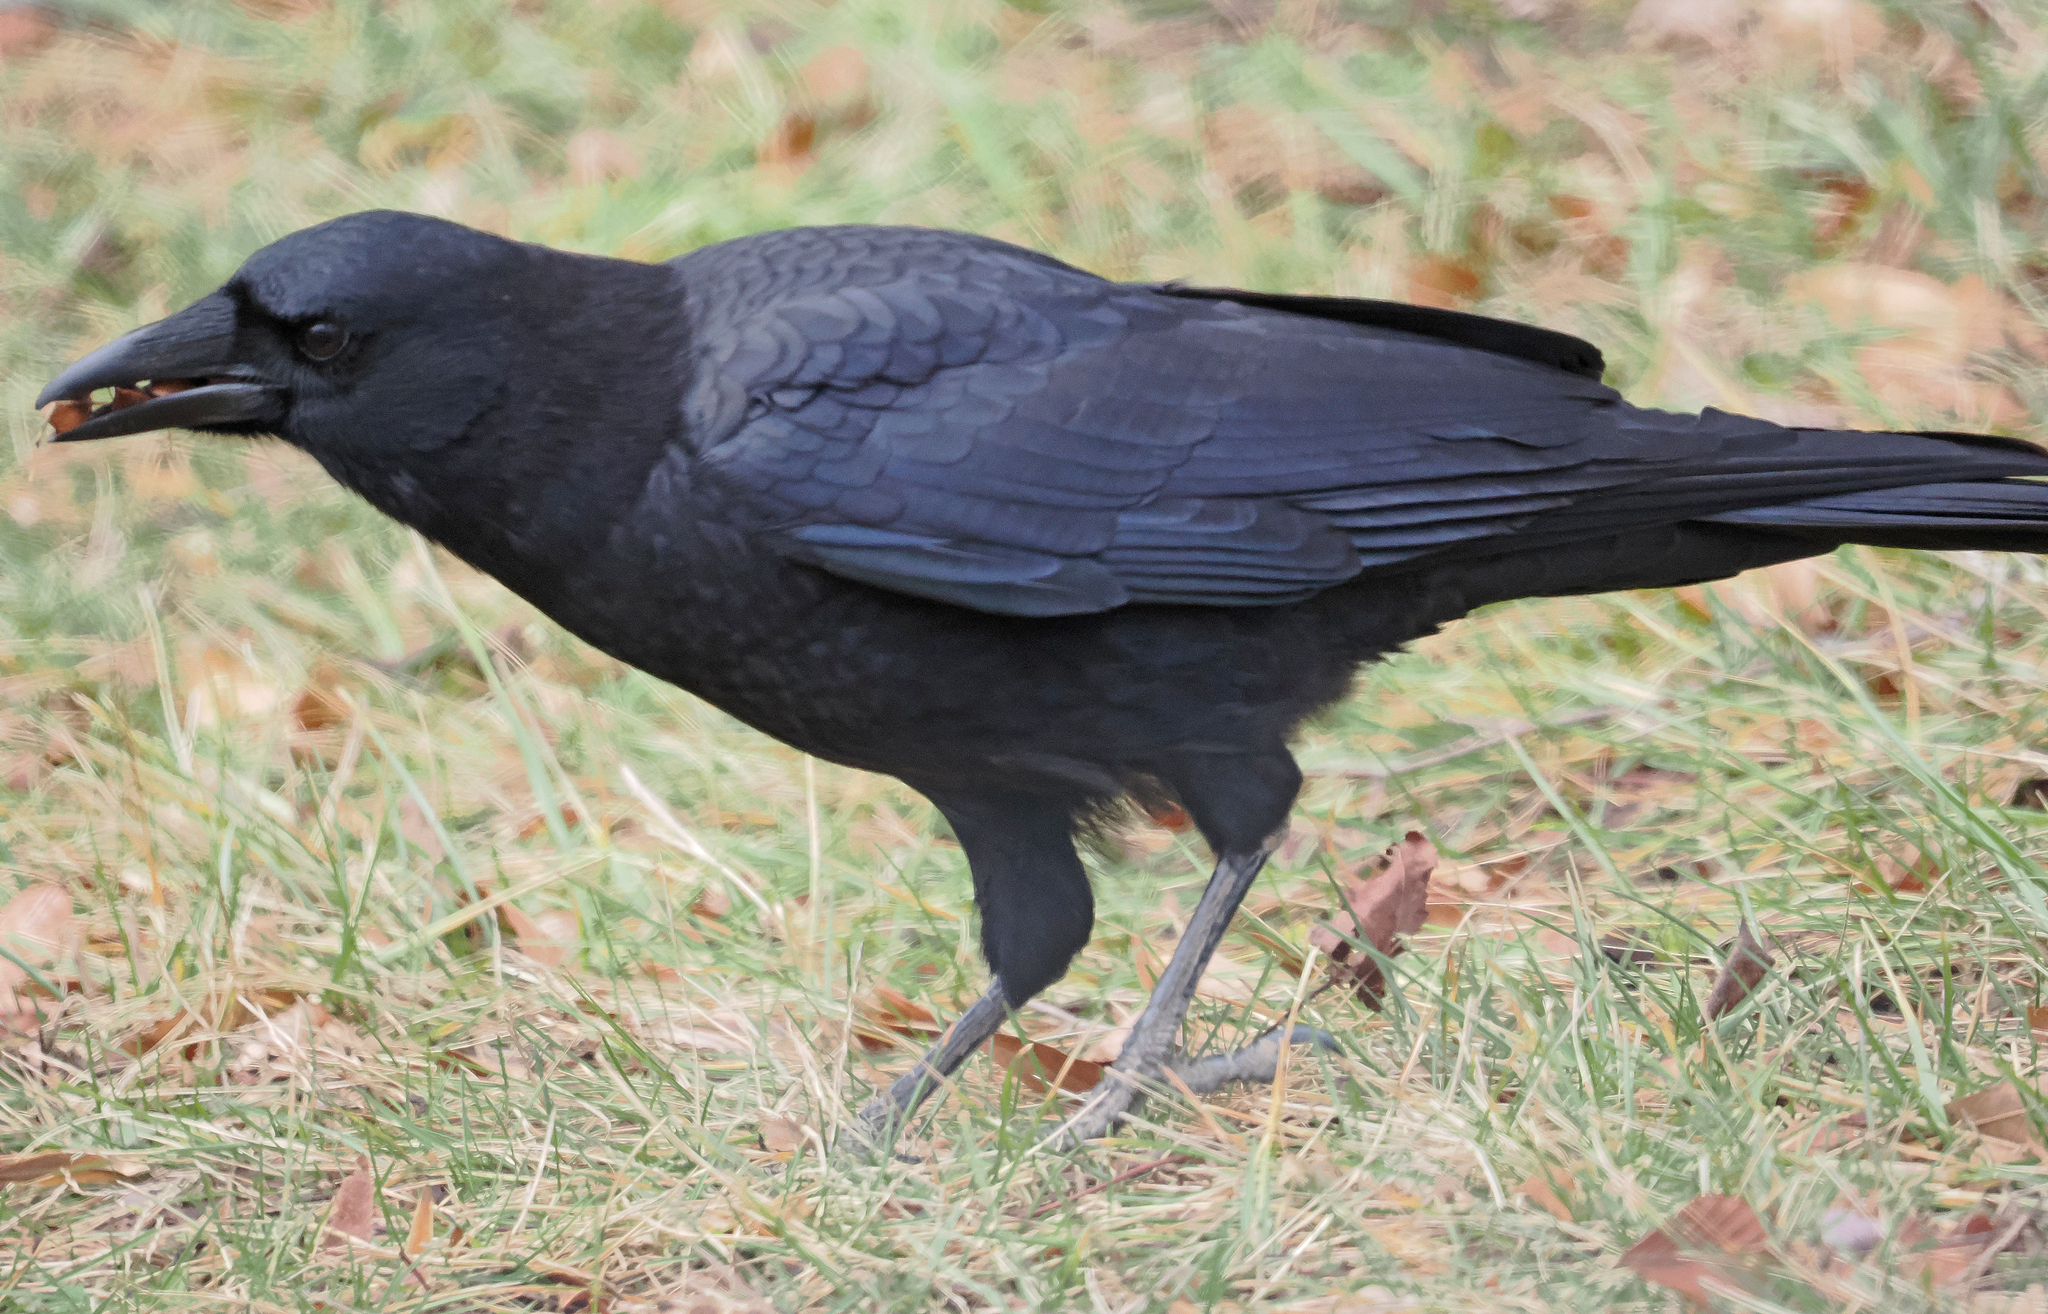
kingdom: Animalia
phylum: Chordata
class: Aves
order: Passeriformes
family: Corvidae
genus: Corvus
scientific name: Corvus brachyrhynchos
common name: American crow
